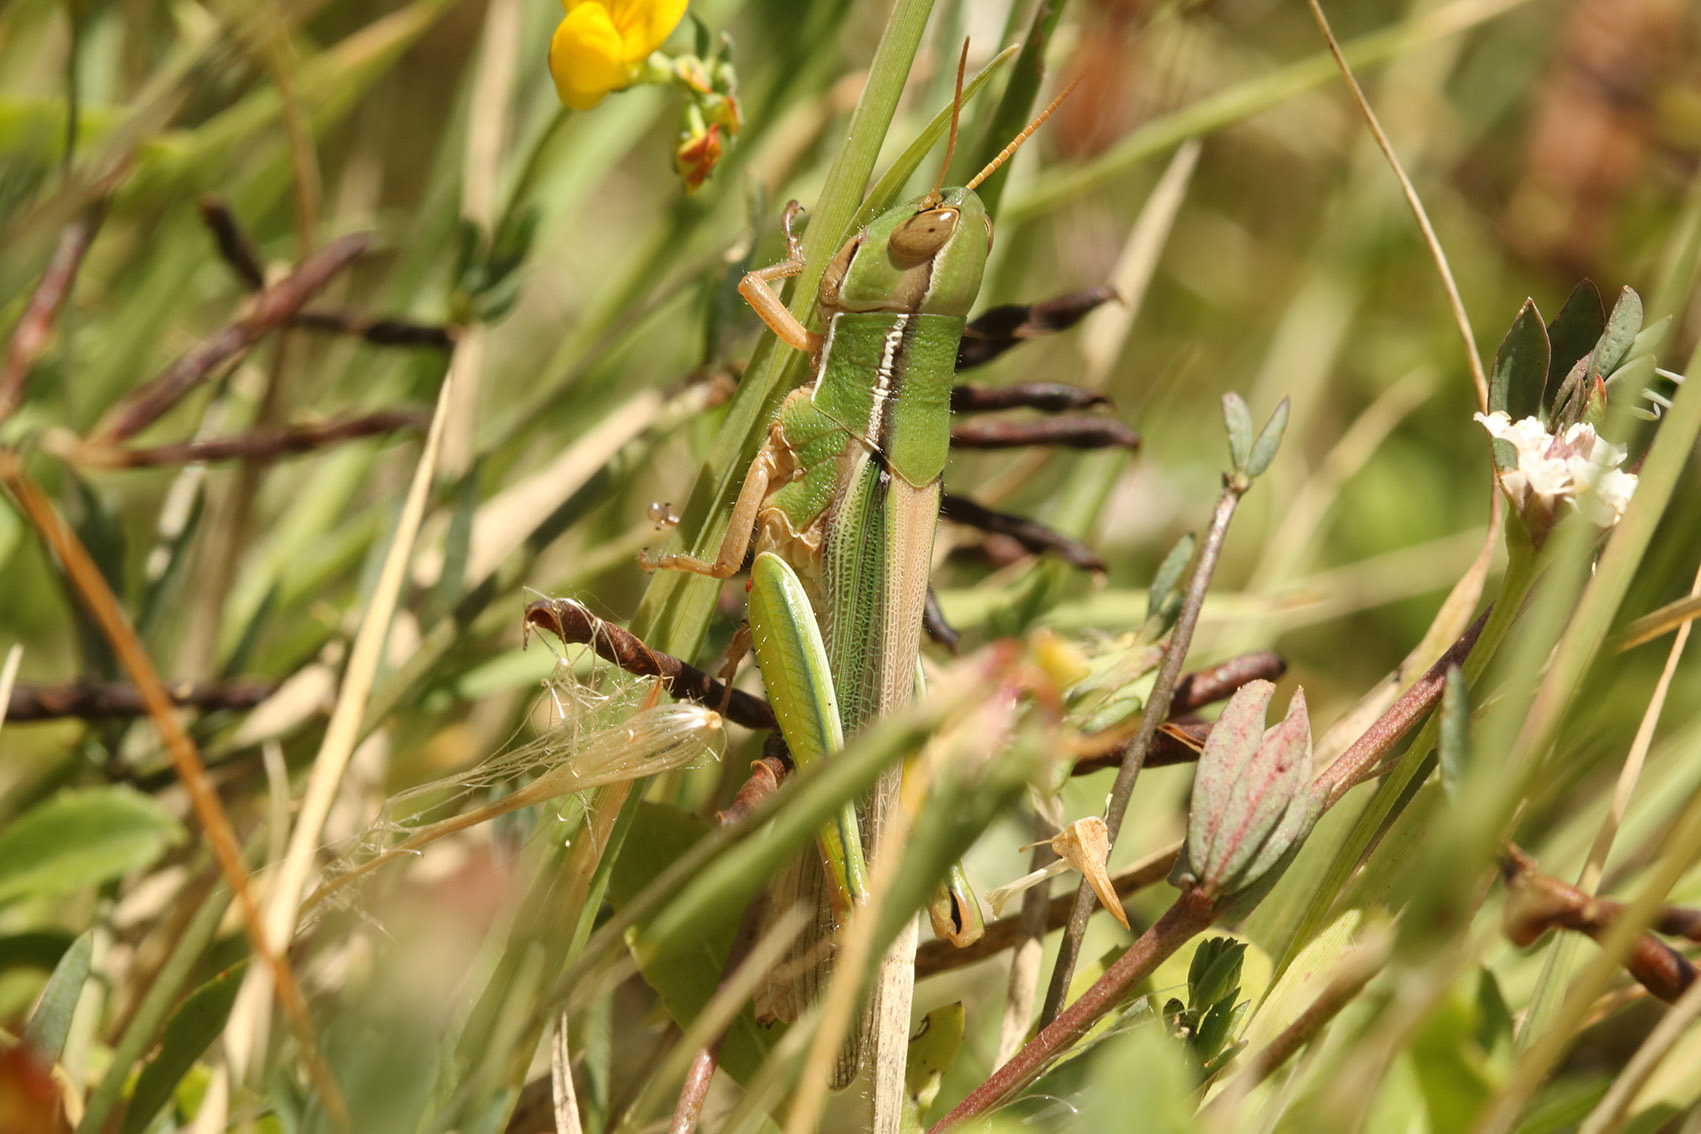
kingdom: Animalia
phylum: Arthropoda
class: Insecta
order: Orthoptera
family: Acrididae
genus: Aleuas
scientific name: Aleuas lineatus
